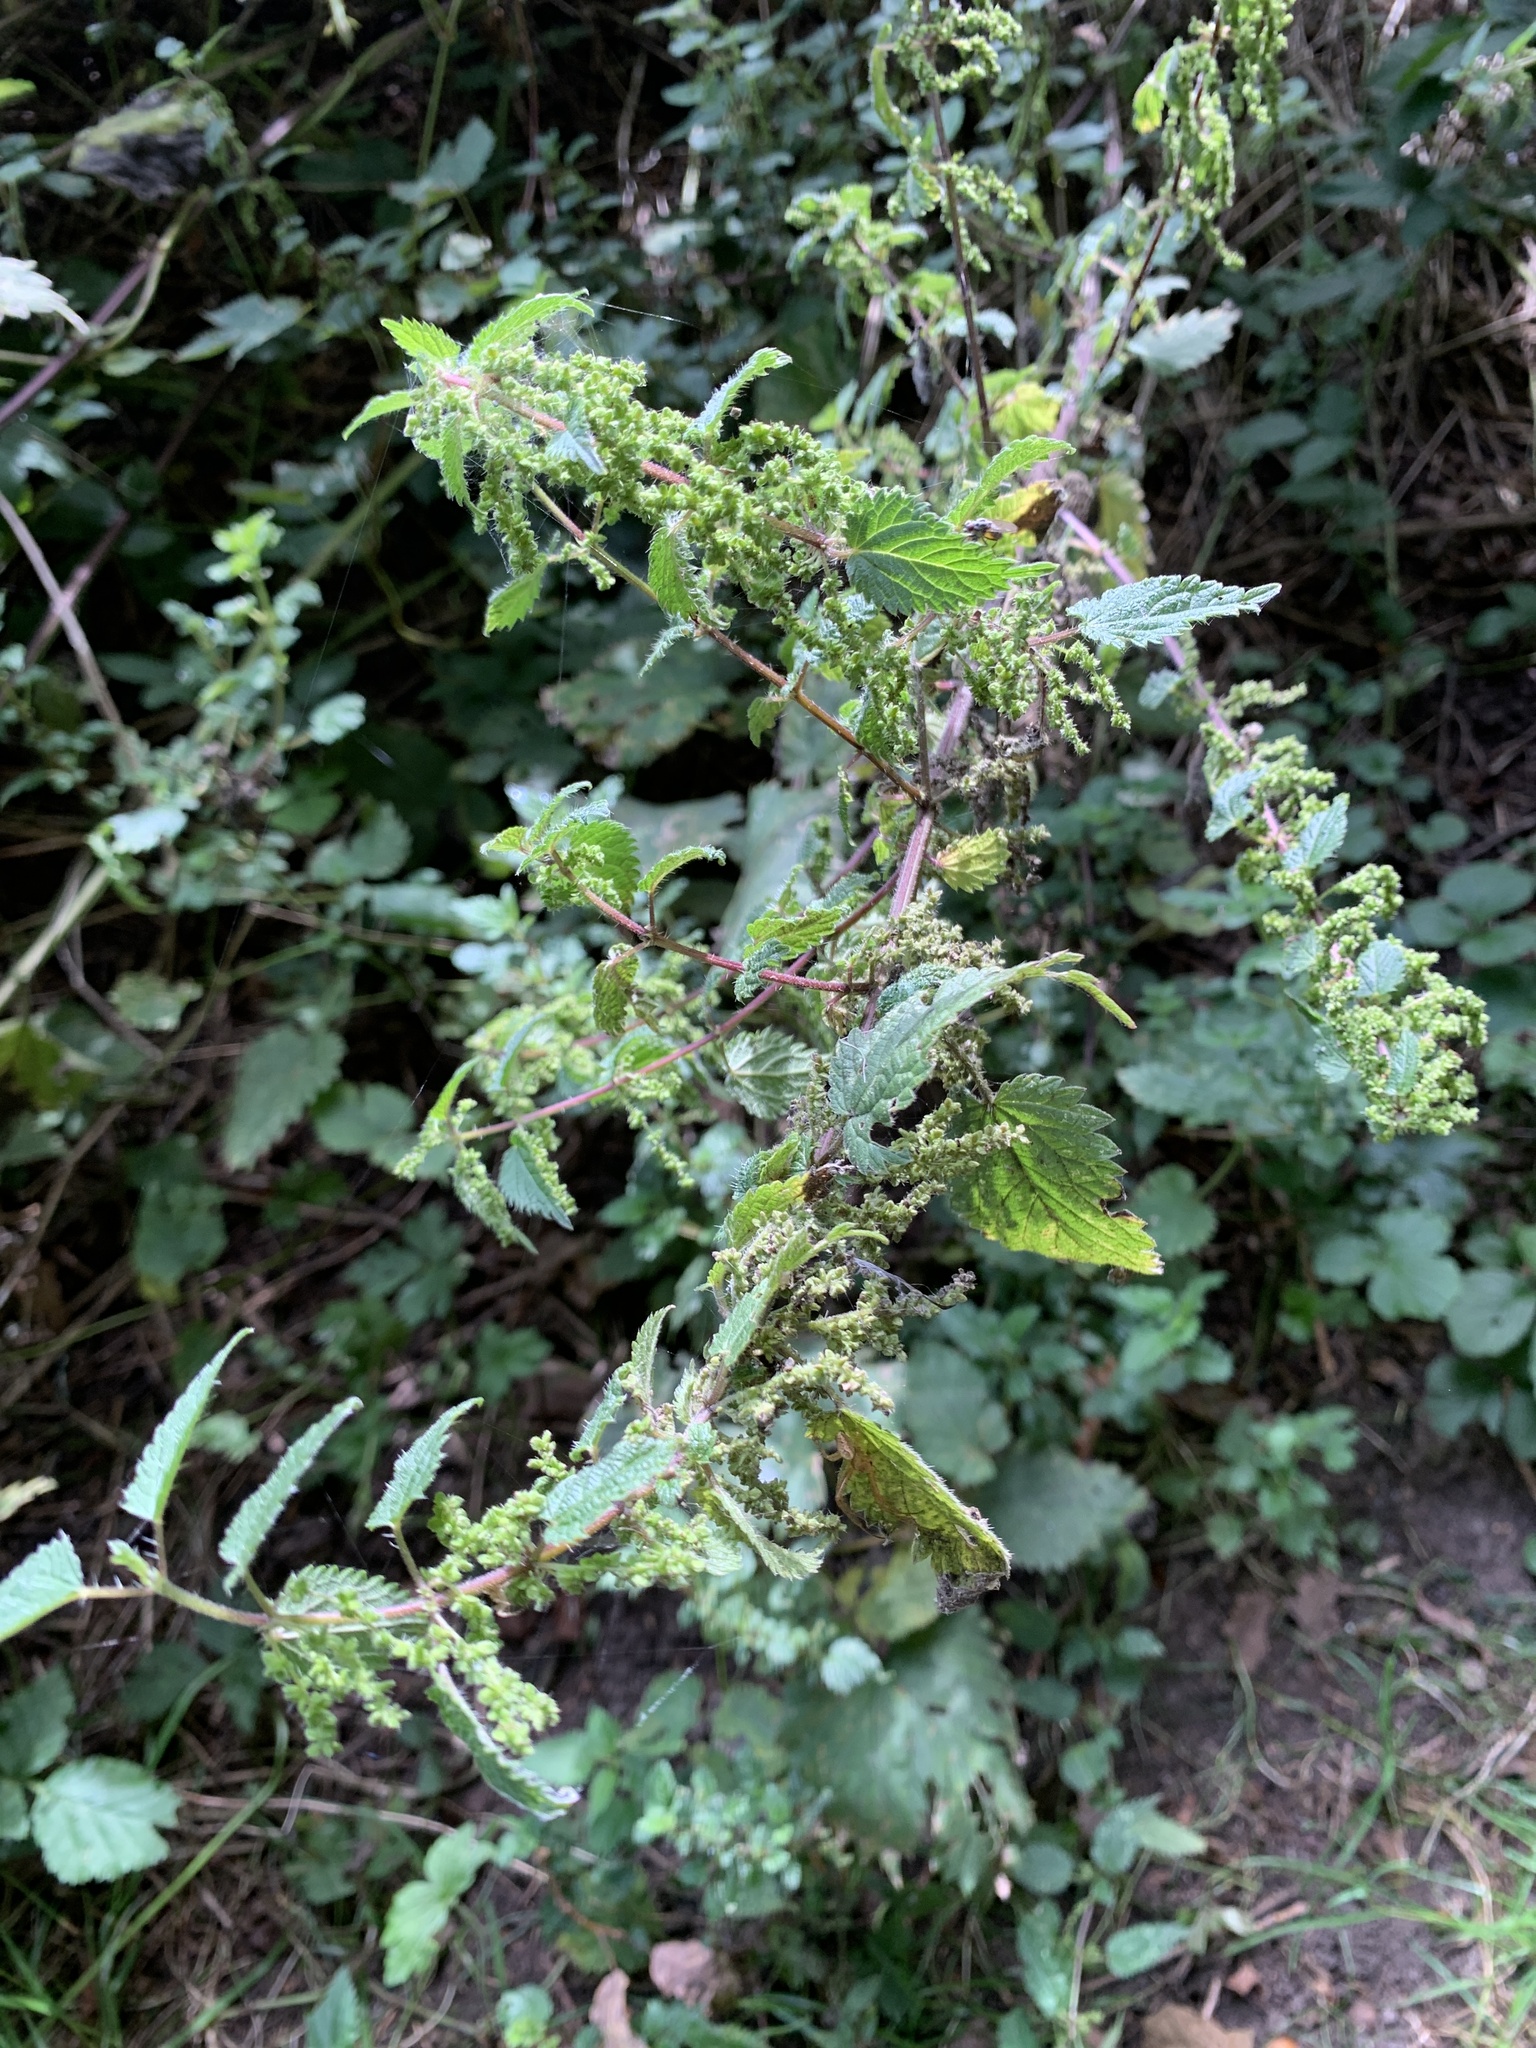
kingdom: Plantae
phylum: Tracheophyta
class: Magnoliopsida
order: Rosales
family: Urticaceae
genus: Urtica
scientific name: Urtica dioica
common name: Common nettle
